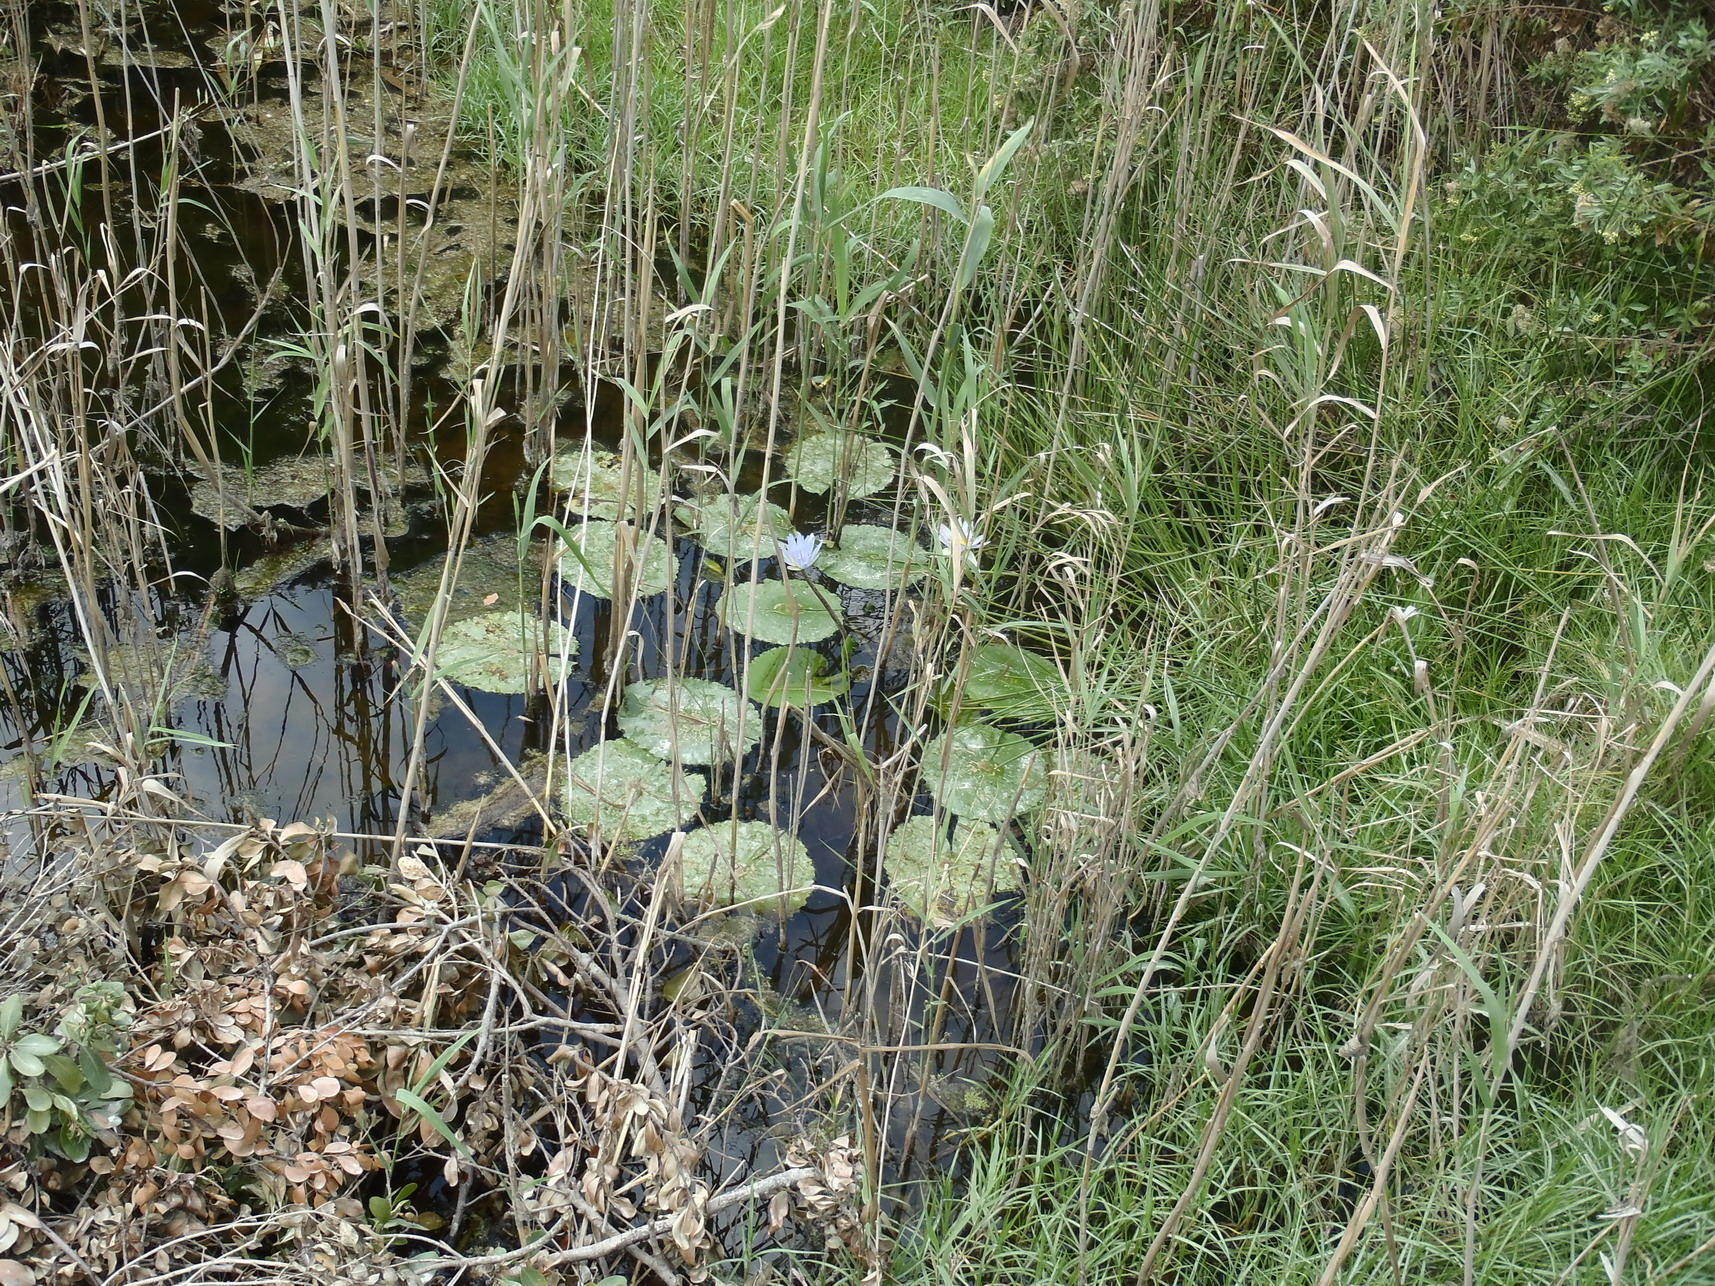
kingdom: Plantae
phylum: Tracheophyta
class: Magnoliopsida
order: Nymphaeales
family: Nymphaeaceae
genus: Nymphaea
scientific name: Nymphaea nouchali
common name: Blue lotus
